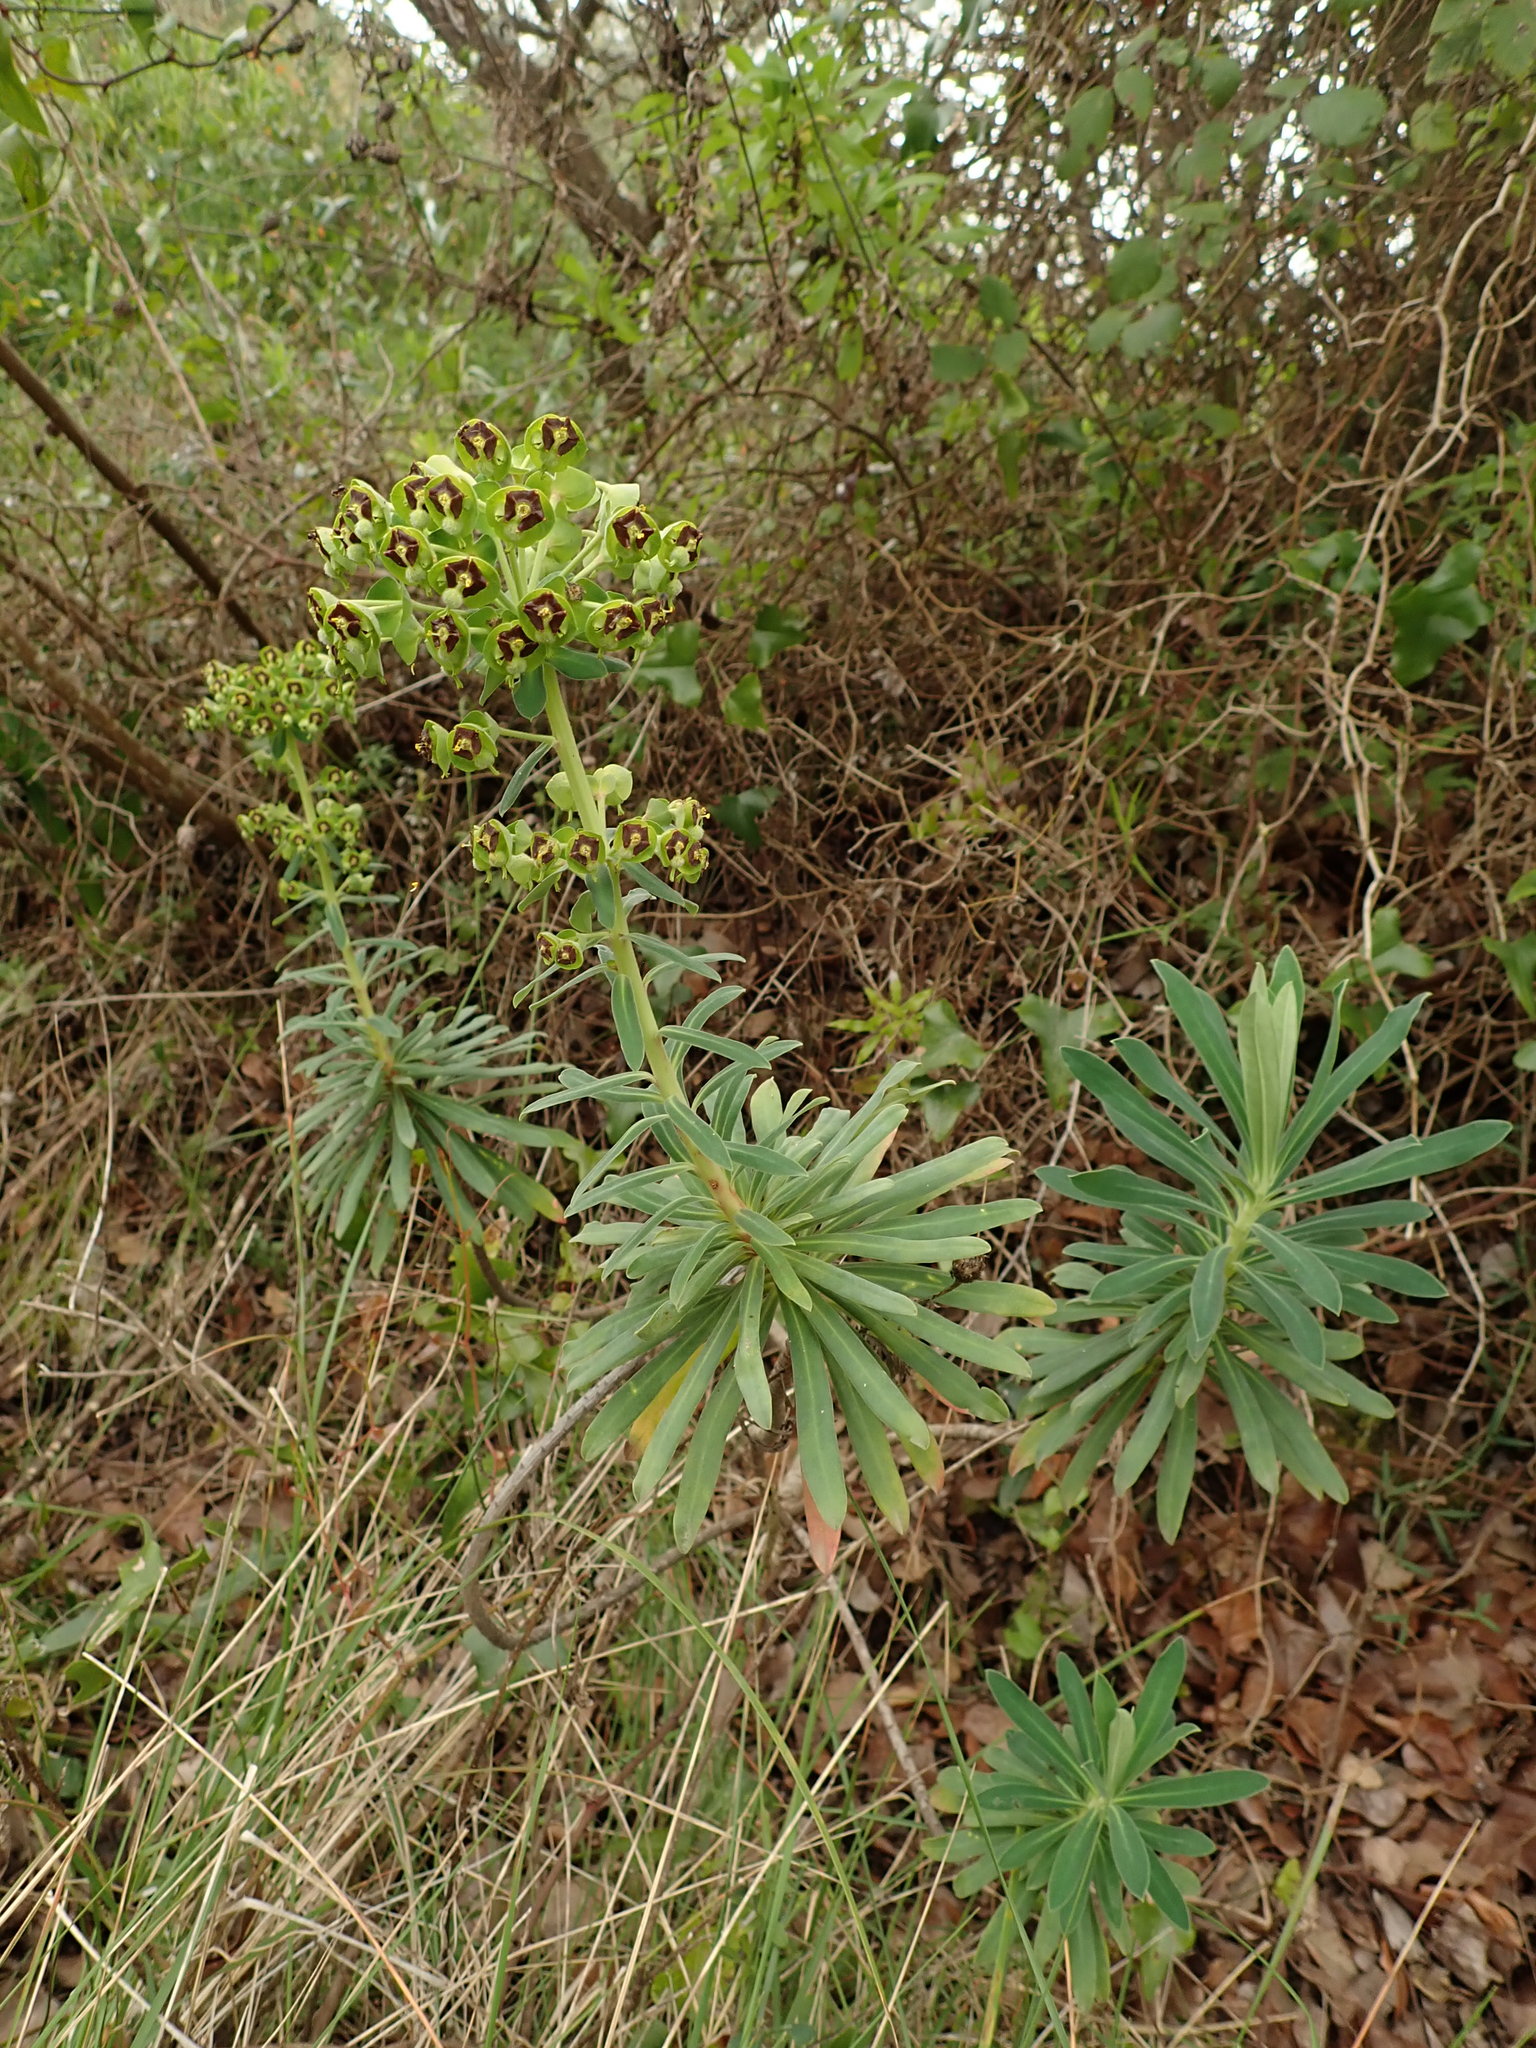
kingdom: Plantae
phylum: Tracheophyta
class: Magnoliopsida
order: Malpighiales
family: Euphorbiaceae
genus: Euphorbia
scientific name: Euphorbia characias
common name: Mediterranean spurge
